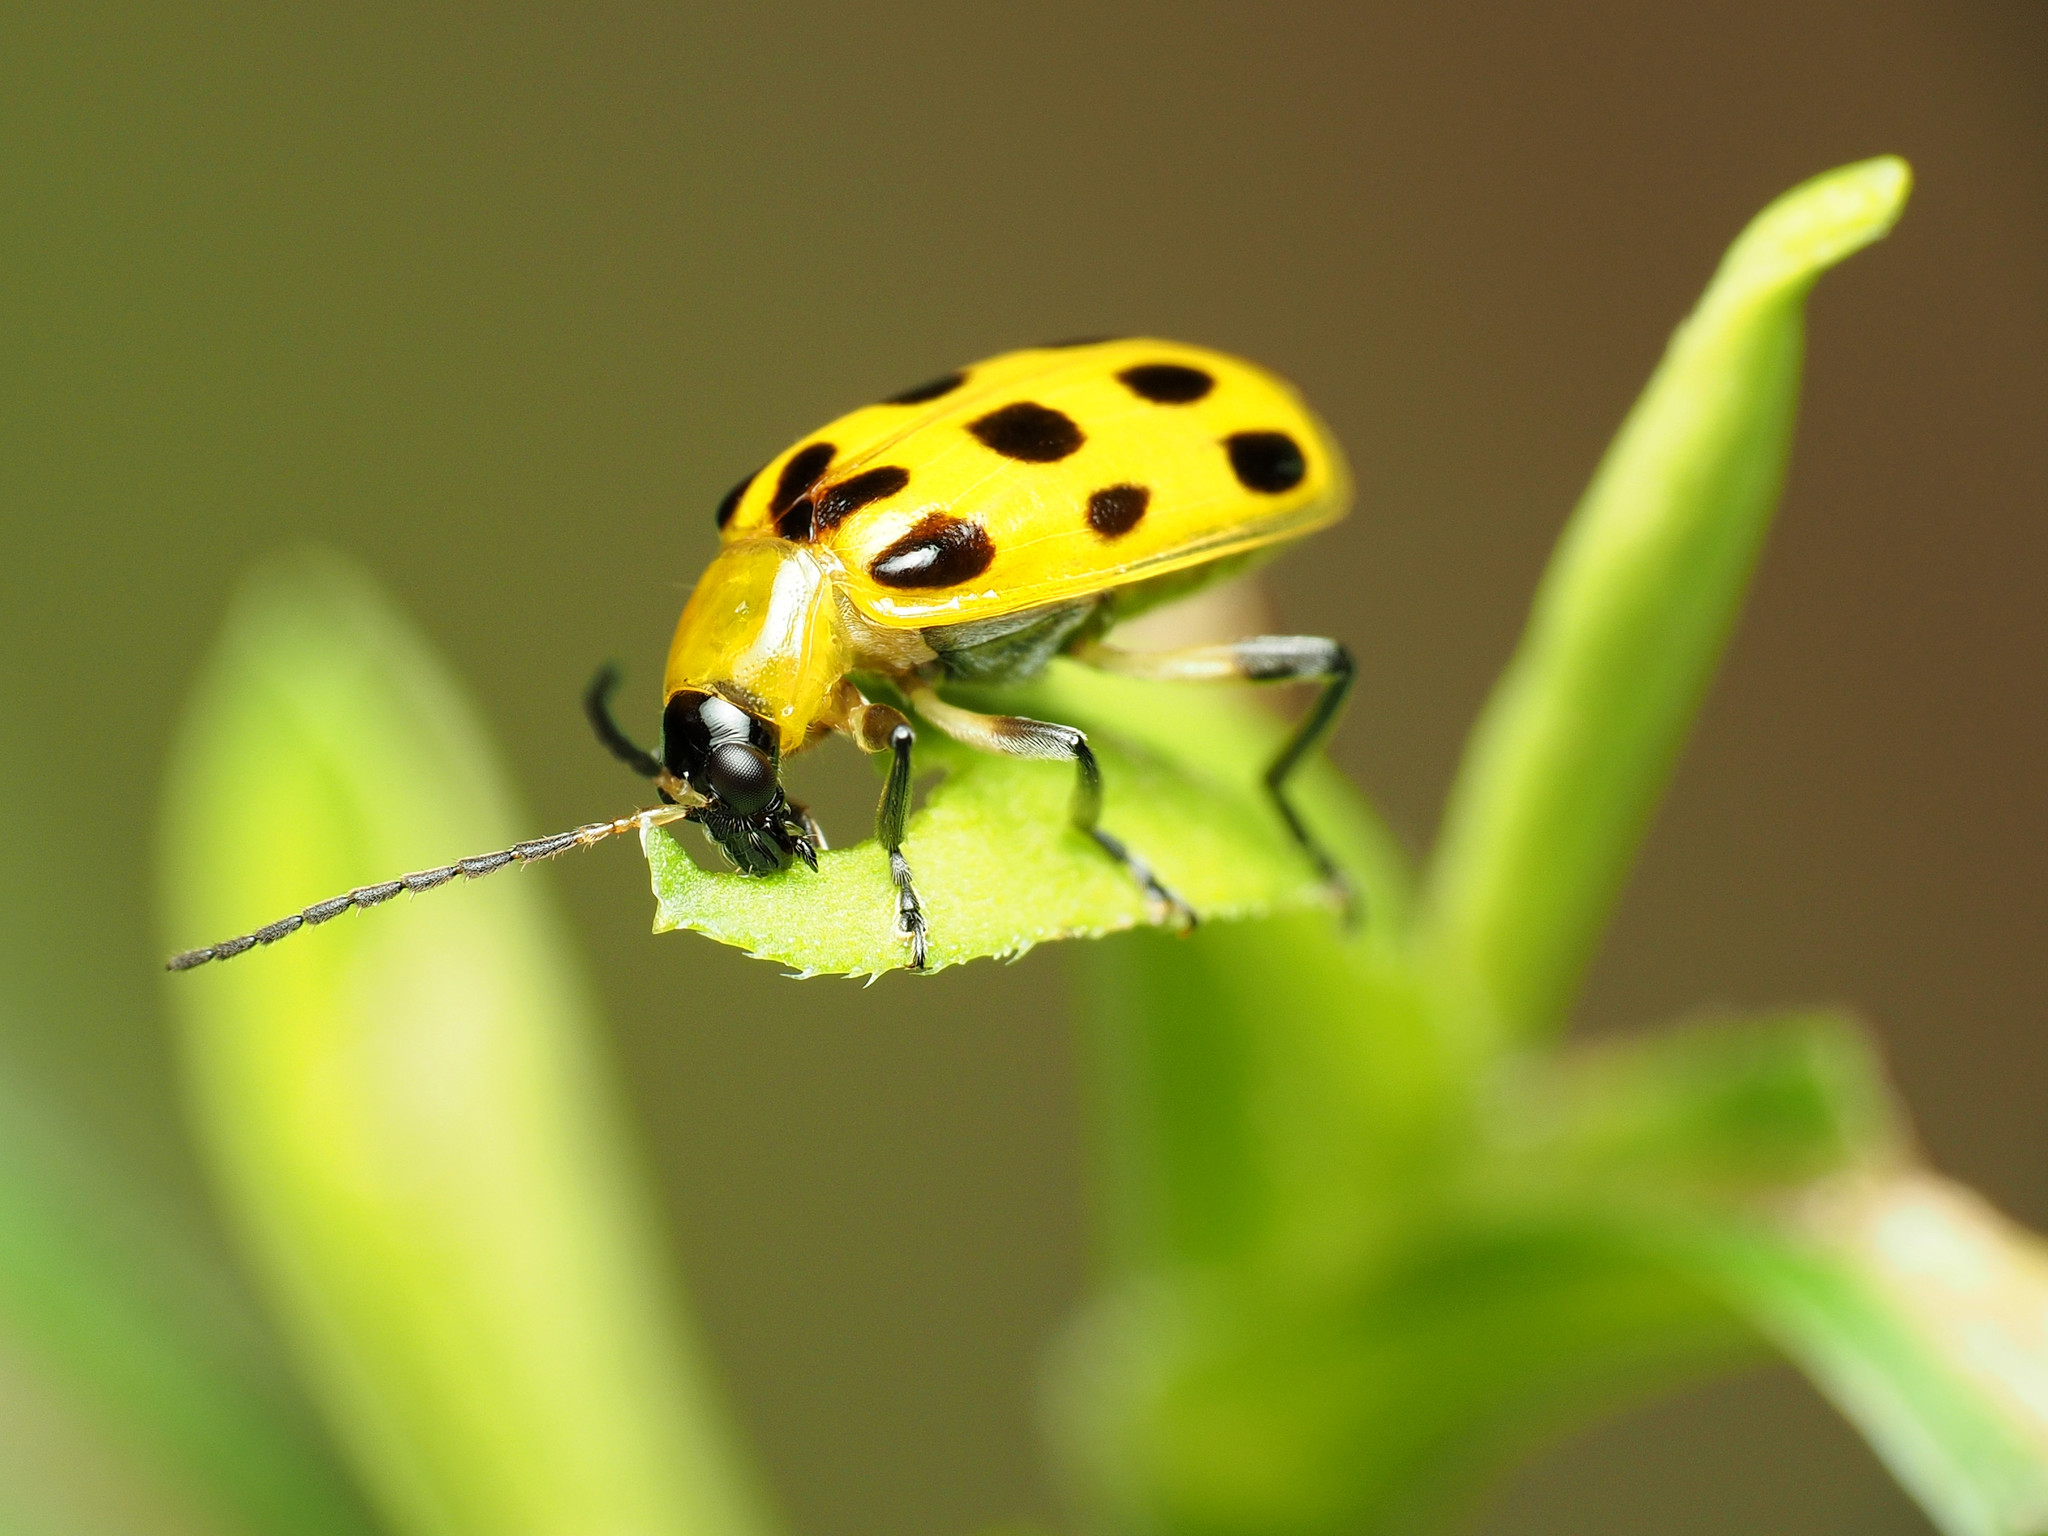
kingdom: Animalia
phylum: Arthropoda
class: Insecta
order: Coleoptera
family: Chrysomelidae
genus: Diabrotica
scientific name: Diabrotica undecimpunctata
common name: Spotted cucumber beetle
